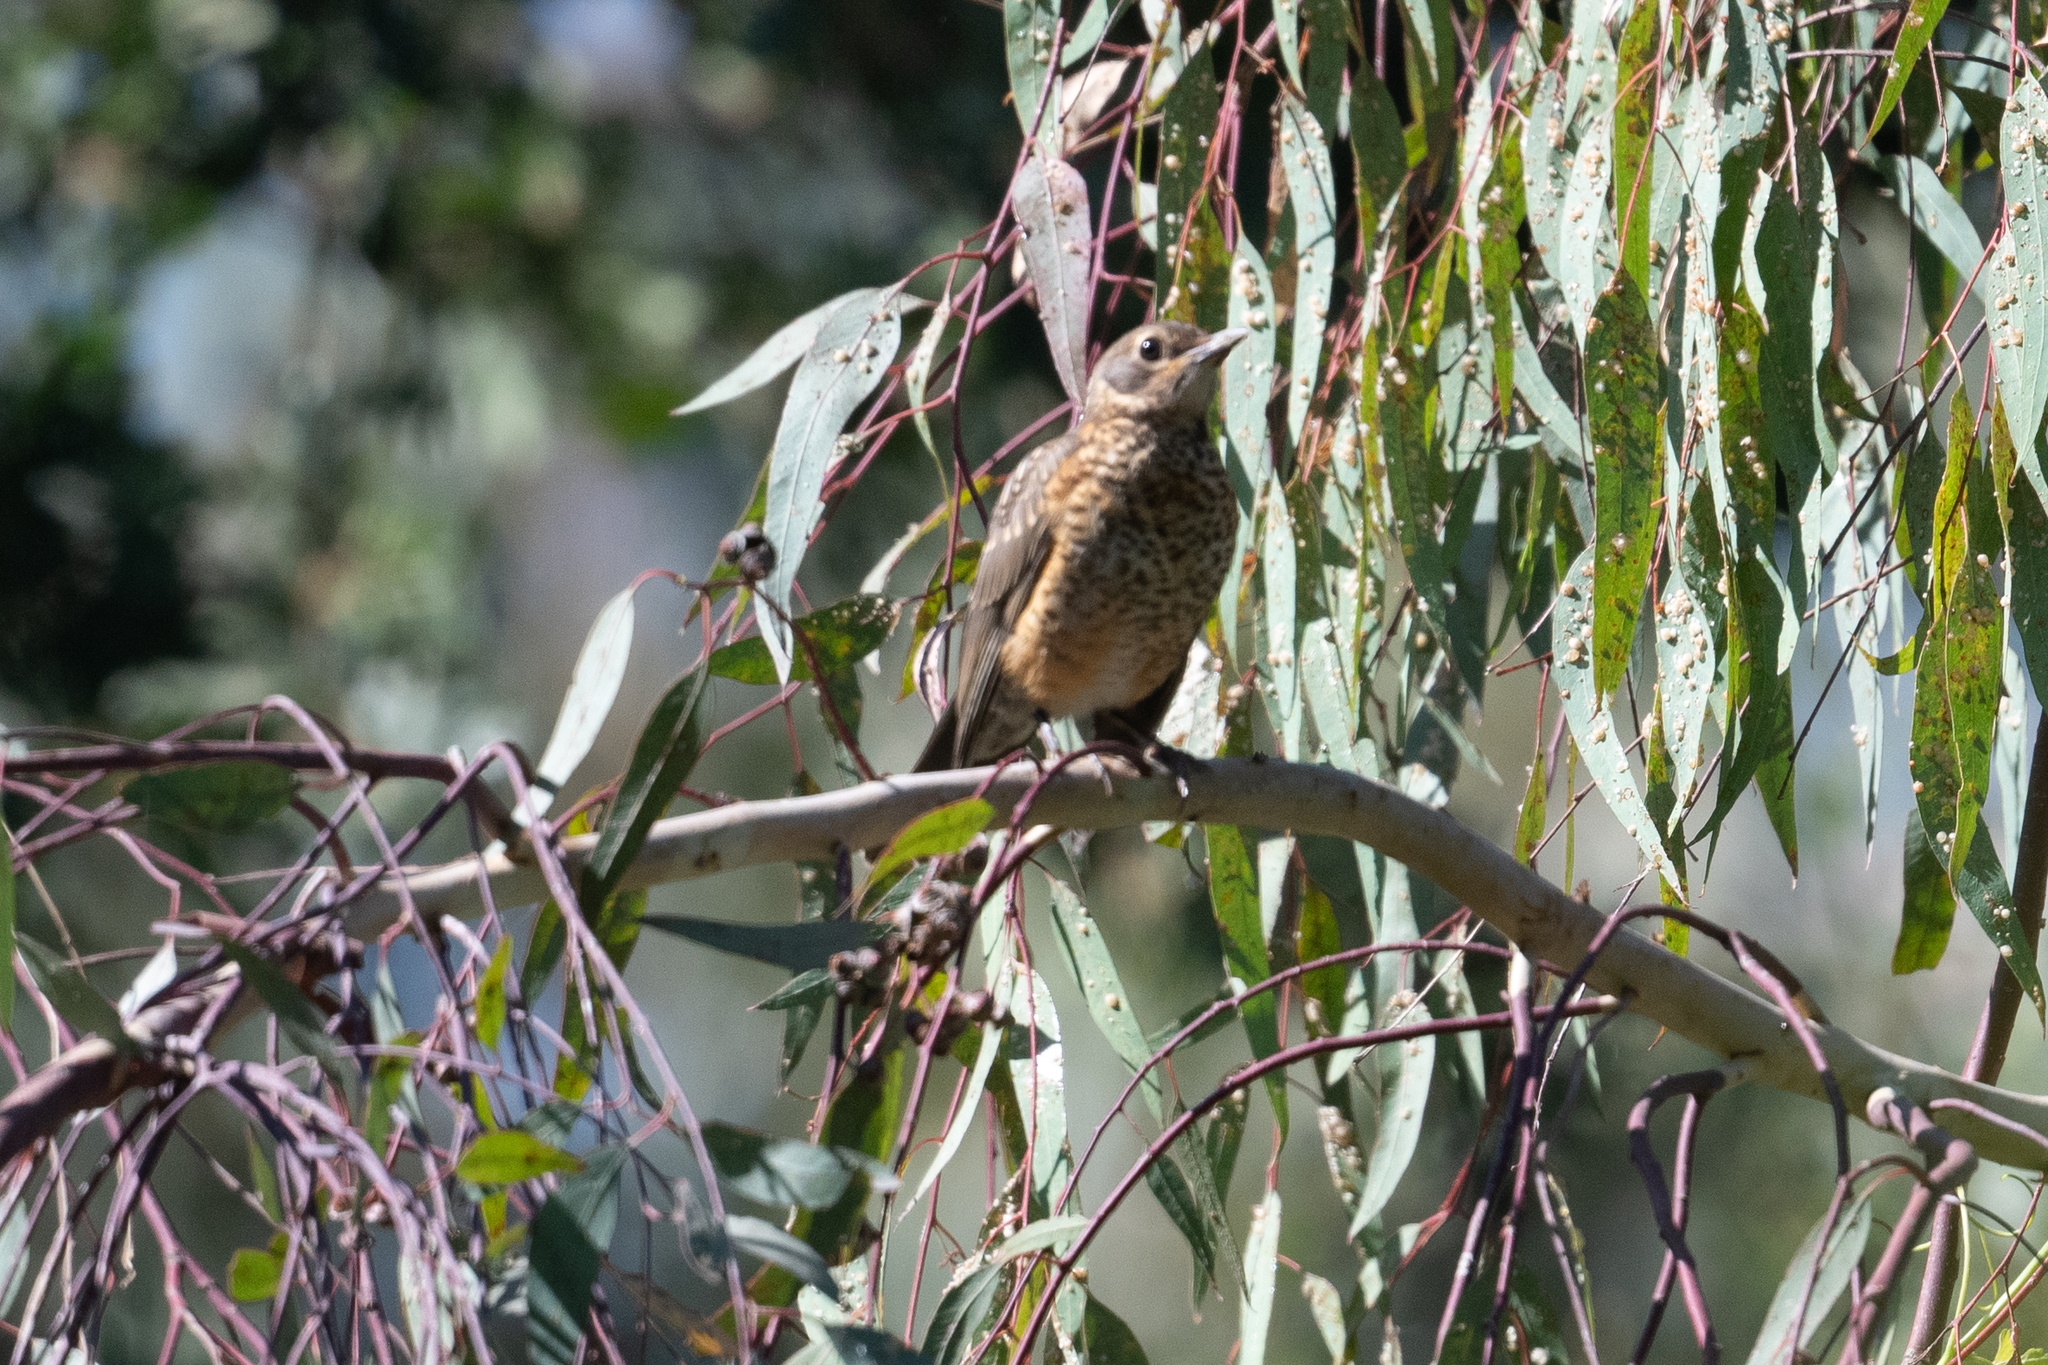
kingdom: Animalia
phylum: Chordata
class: Aves
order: Passeriformes
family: Turdidae
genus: Turdus
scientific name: Turdus migratorius
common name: American robin
